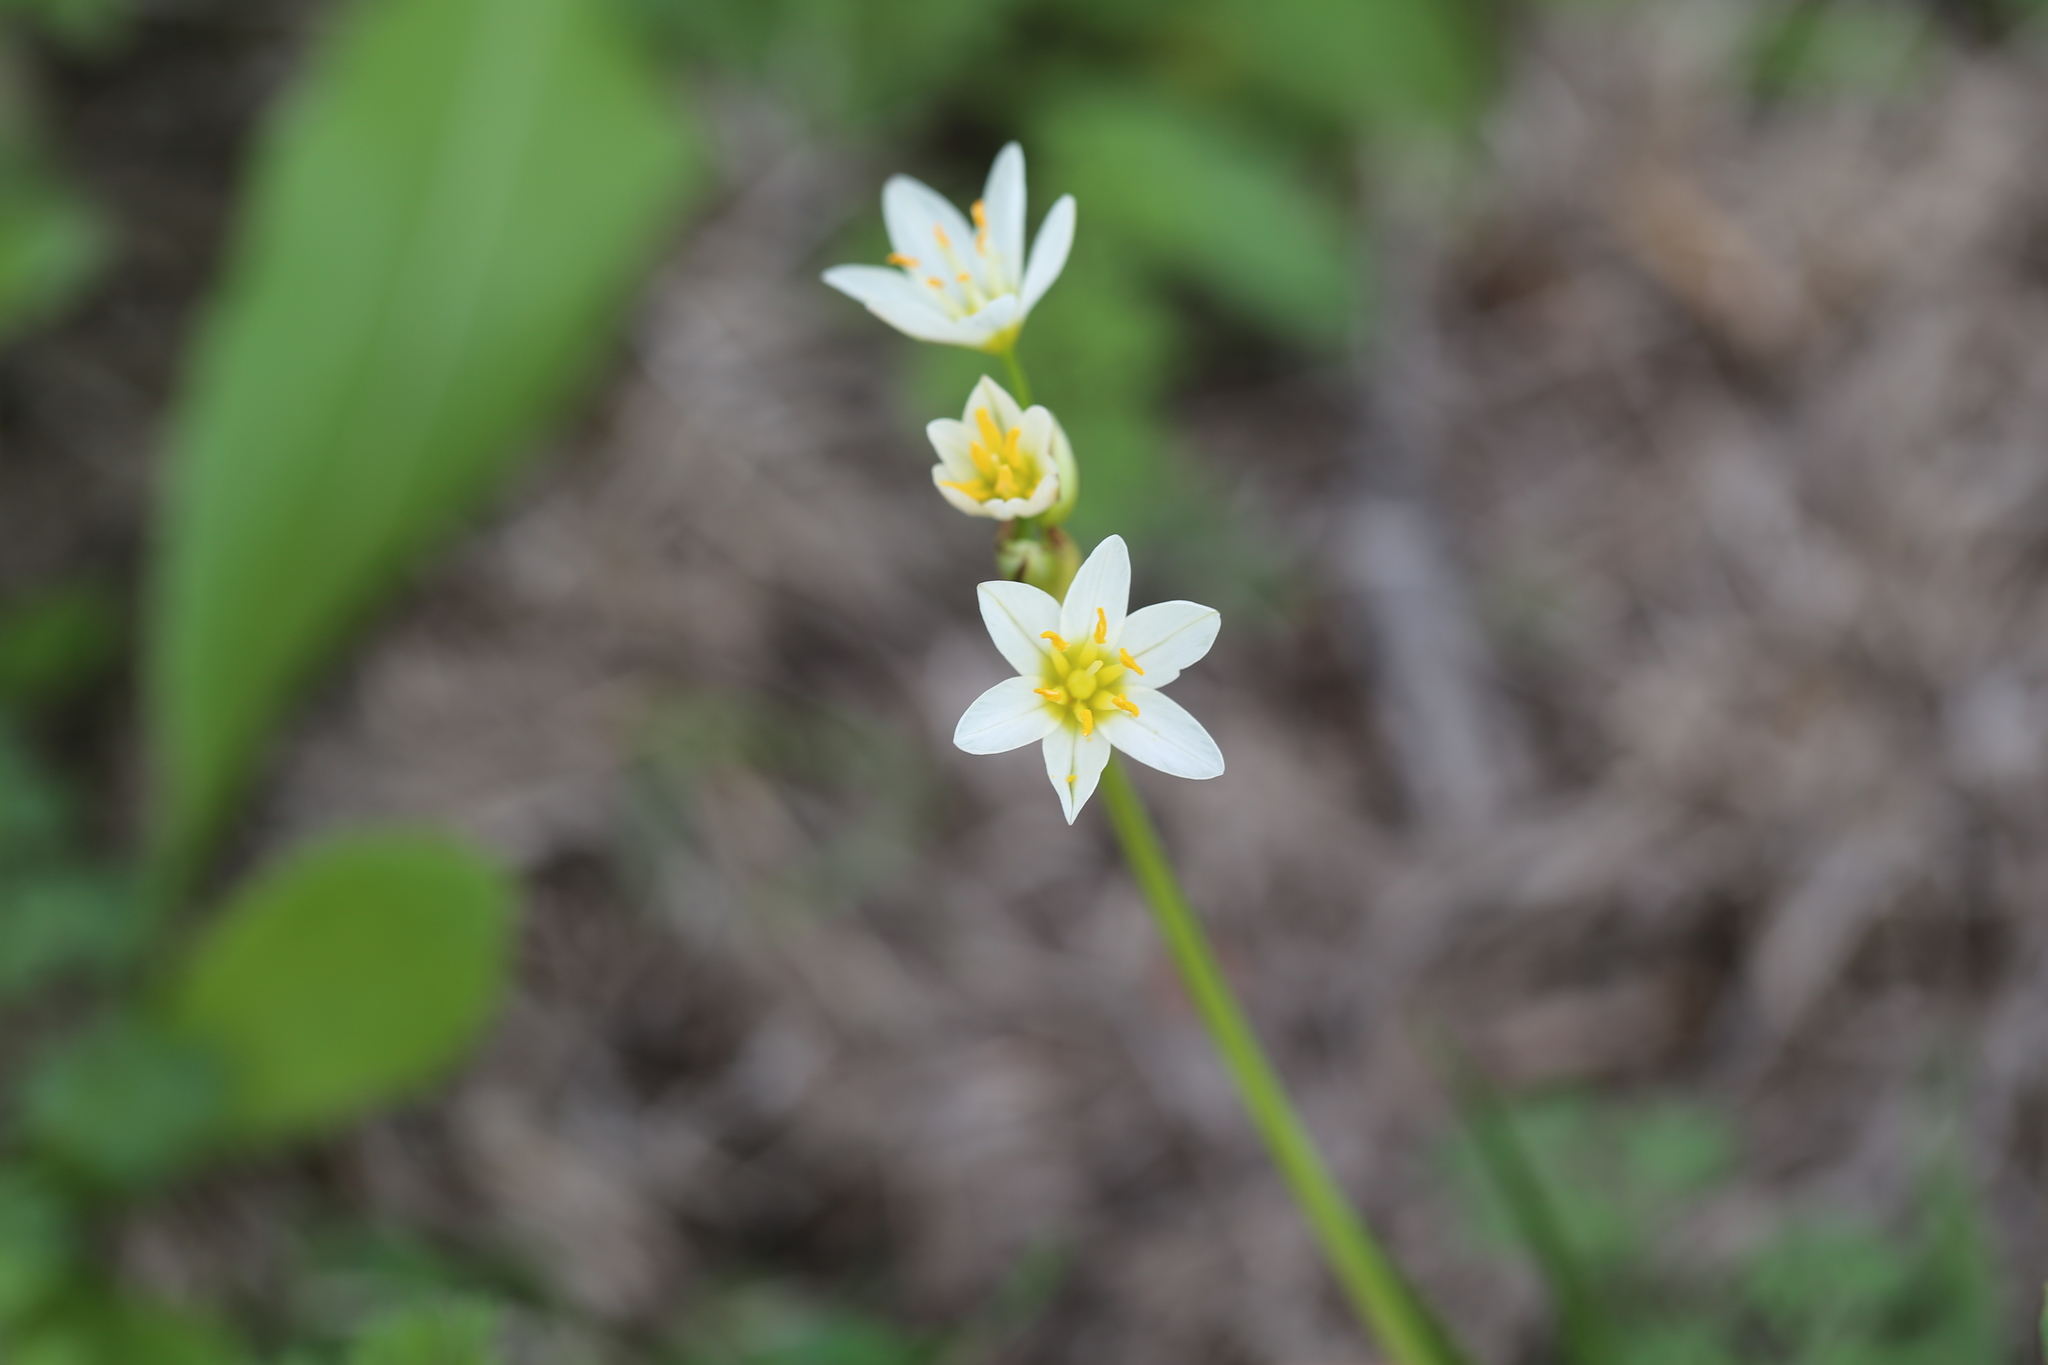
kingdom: Plantae
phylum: Tracheophyta
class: Liliopsida
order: Asparagales
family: Amaryllidaceae
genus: Nothoscordum
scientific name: Nothoscordum bivalve
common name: Crow-poison
